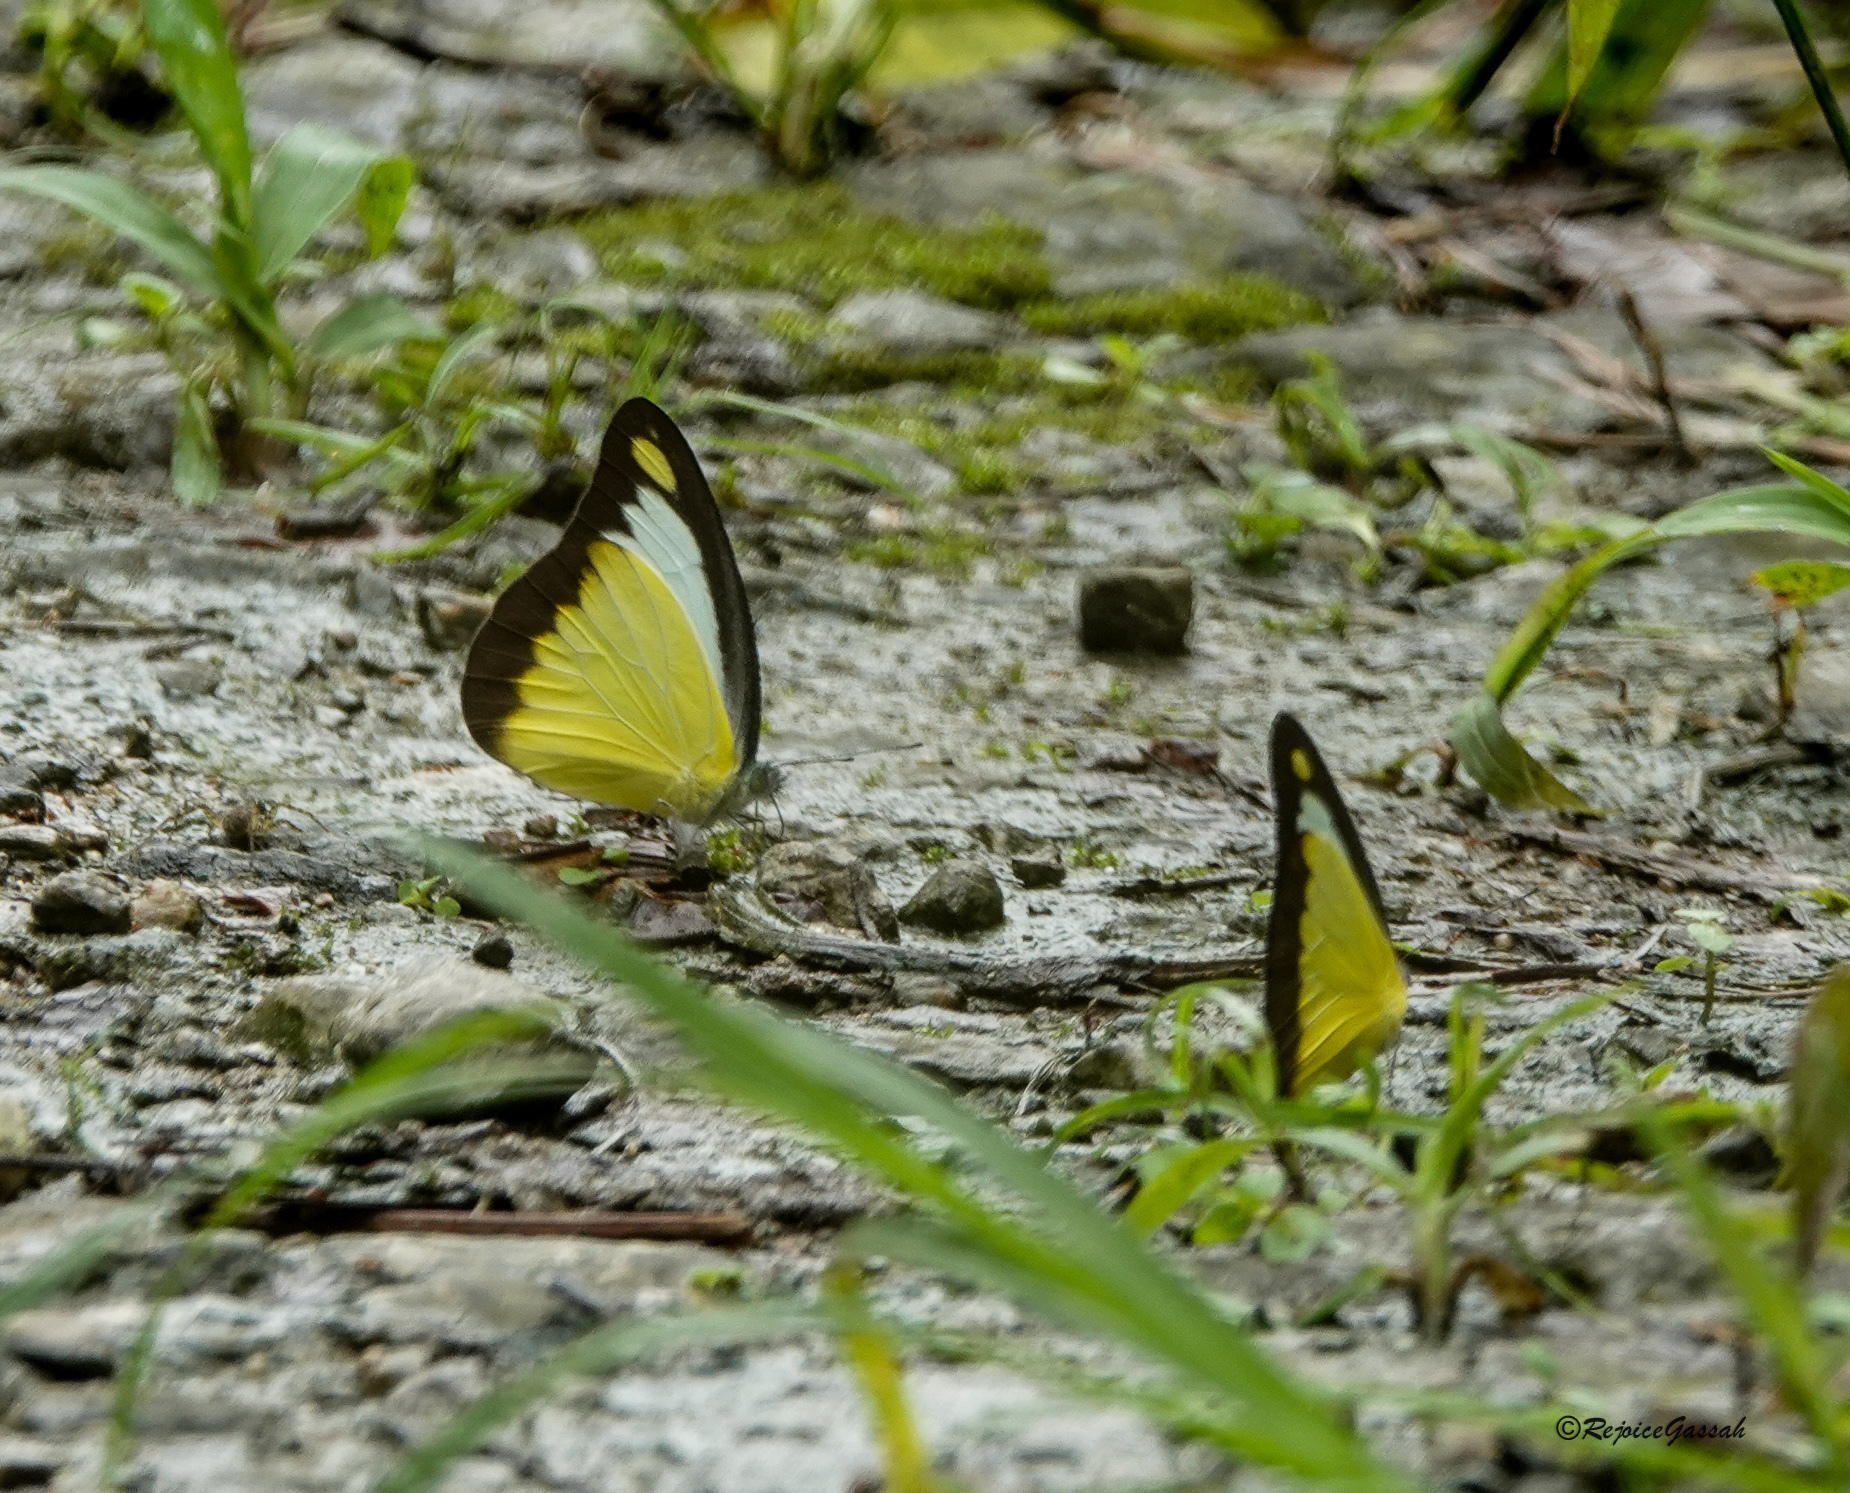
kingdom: Animalia
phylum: Arthropoda
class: Insecta
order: Lepidoptera
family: Pieridae
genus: Appias
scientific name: Appias lyncida
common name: Chocolate albatross
